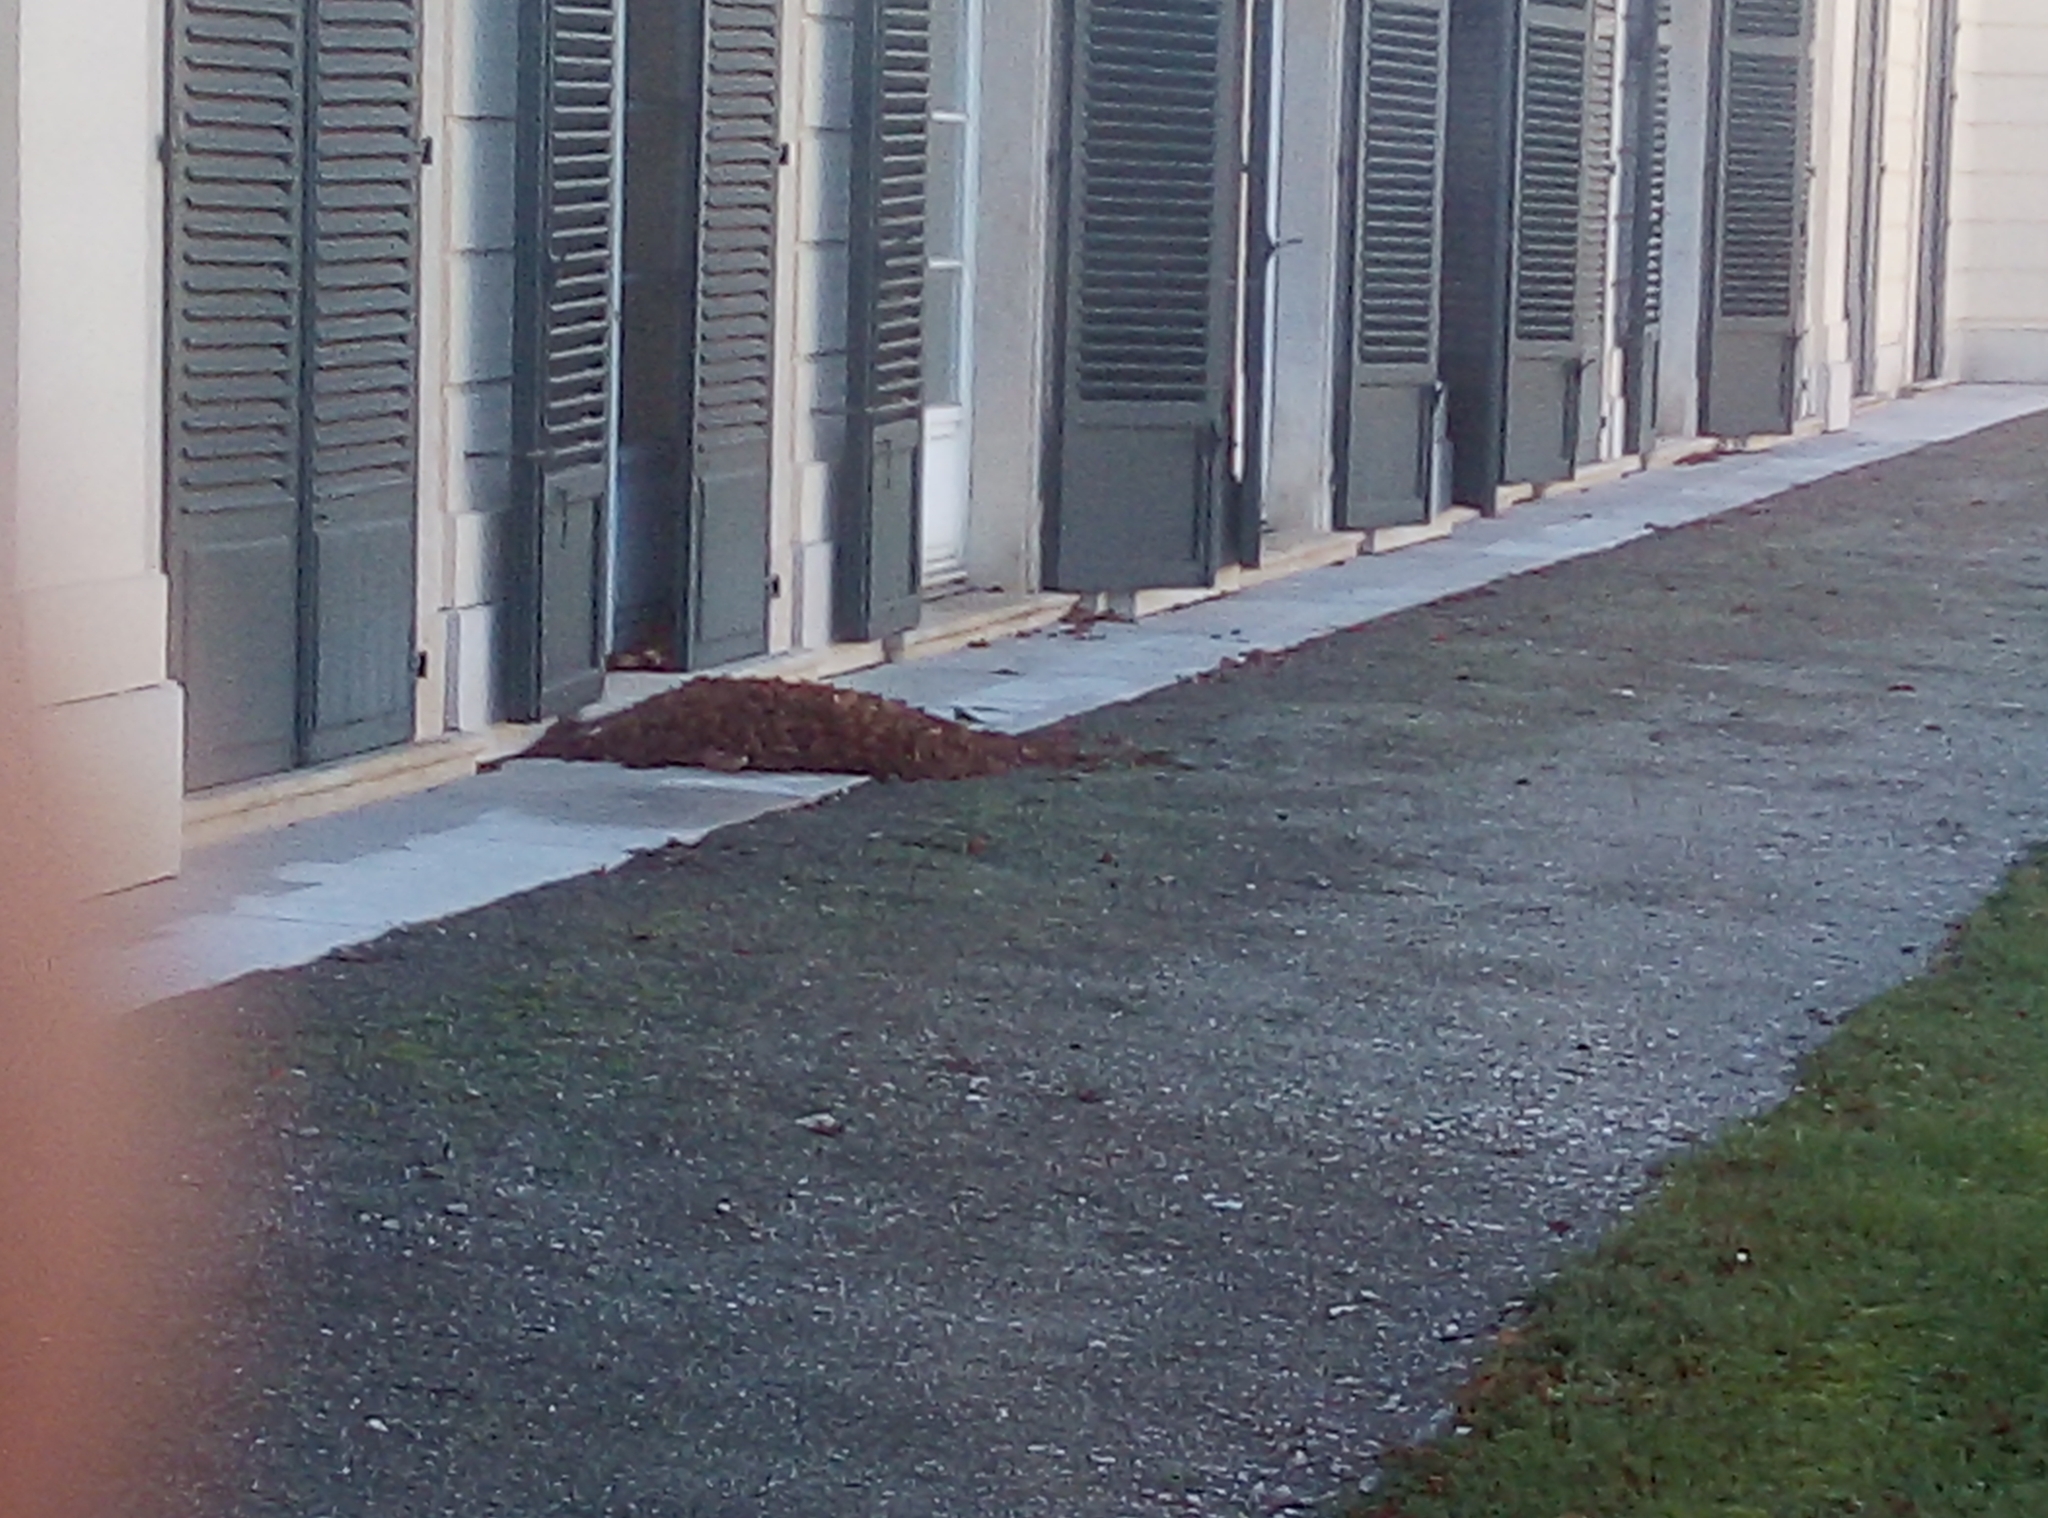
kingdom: Animalia
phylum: Chordata
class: Aves
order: Passeriformes
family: Motacillidae
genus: Motacilla
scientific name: Motacilla cinerea
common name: Grey wagtail
